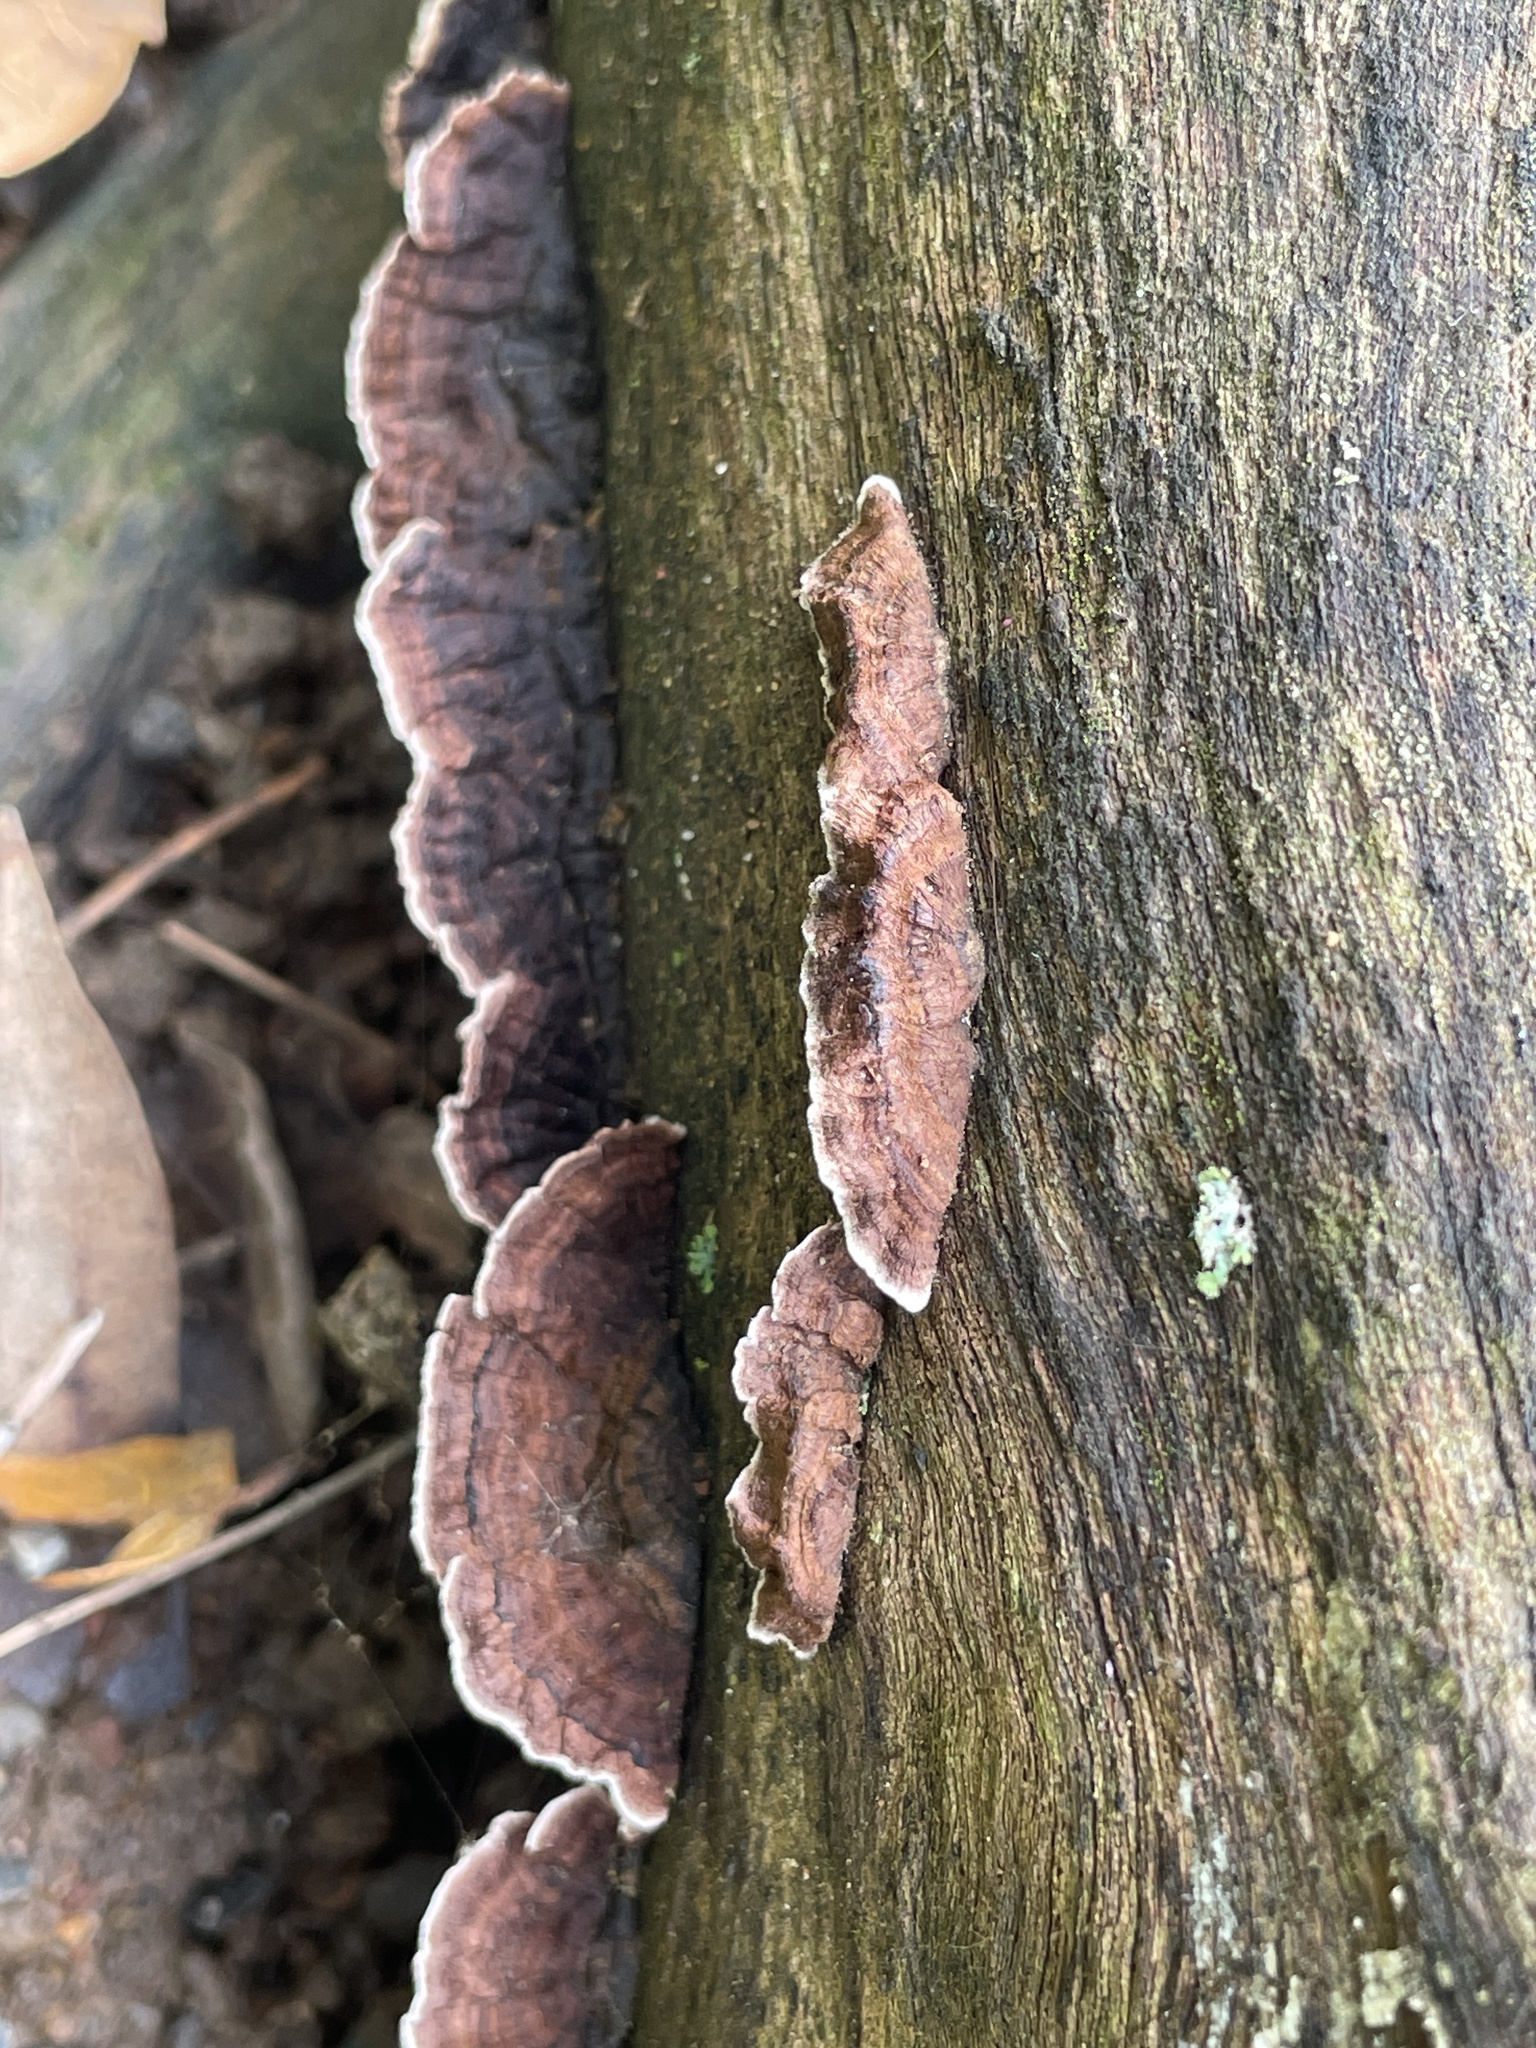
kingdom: Fungi
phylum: Basidiomycota
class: Agaricomycetes
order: Russulales
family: Peniophoraceae
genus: Peniophora
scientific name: Peniophora albobadia
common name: Giraffe spots
